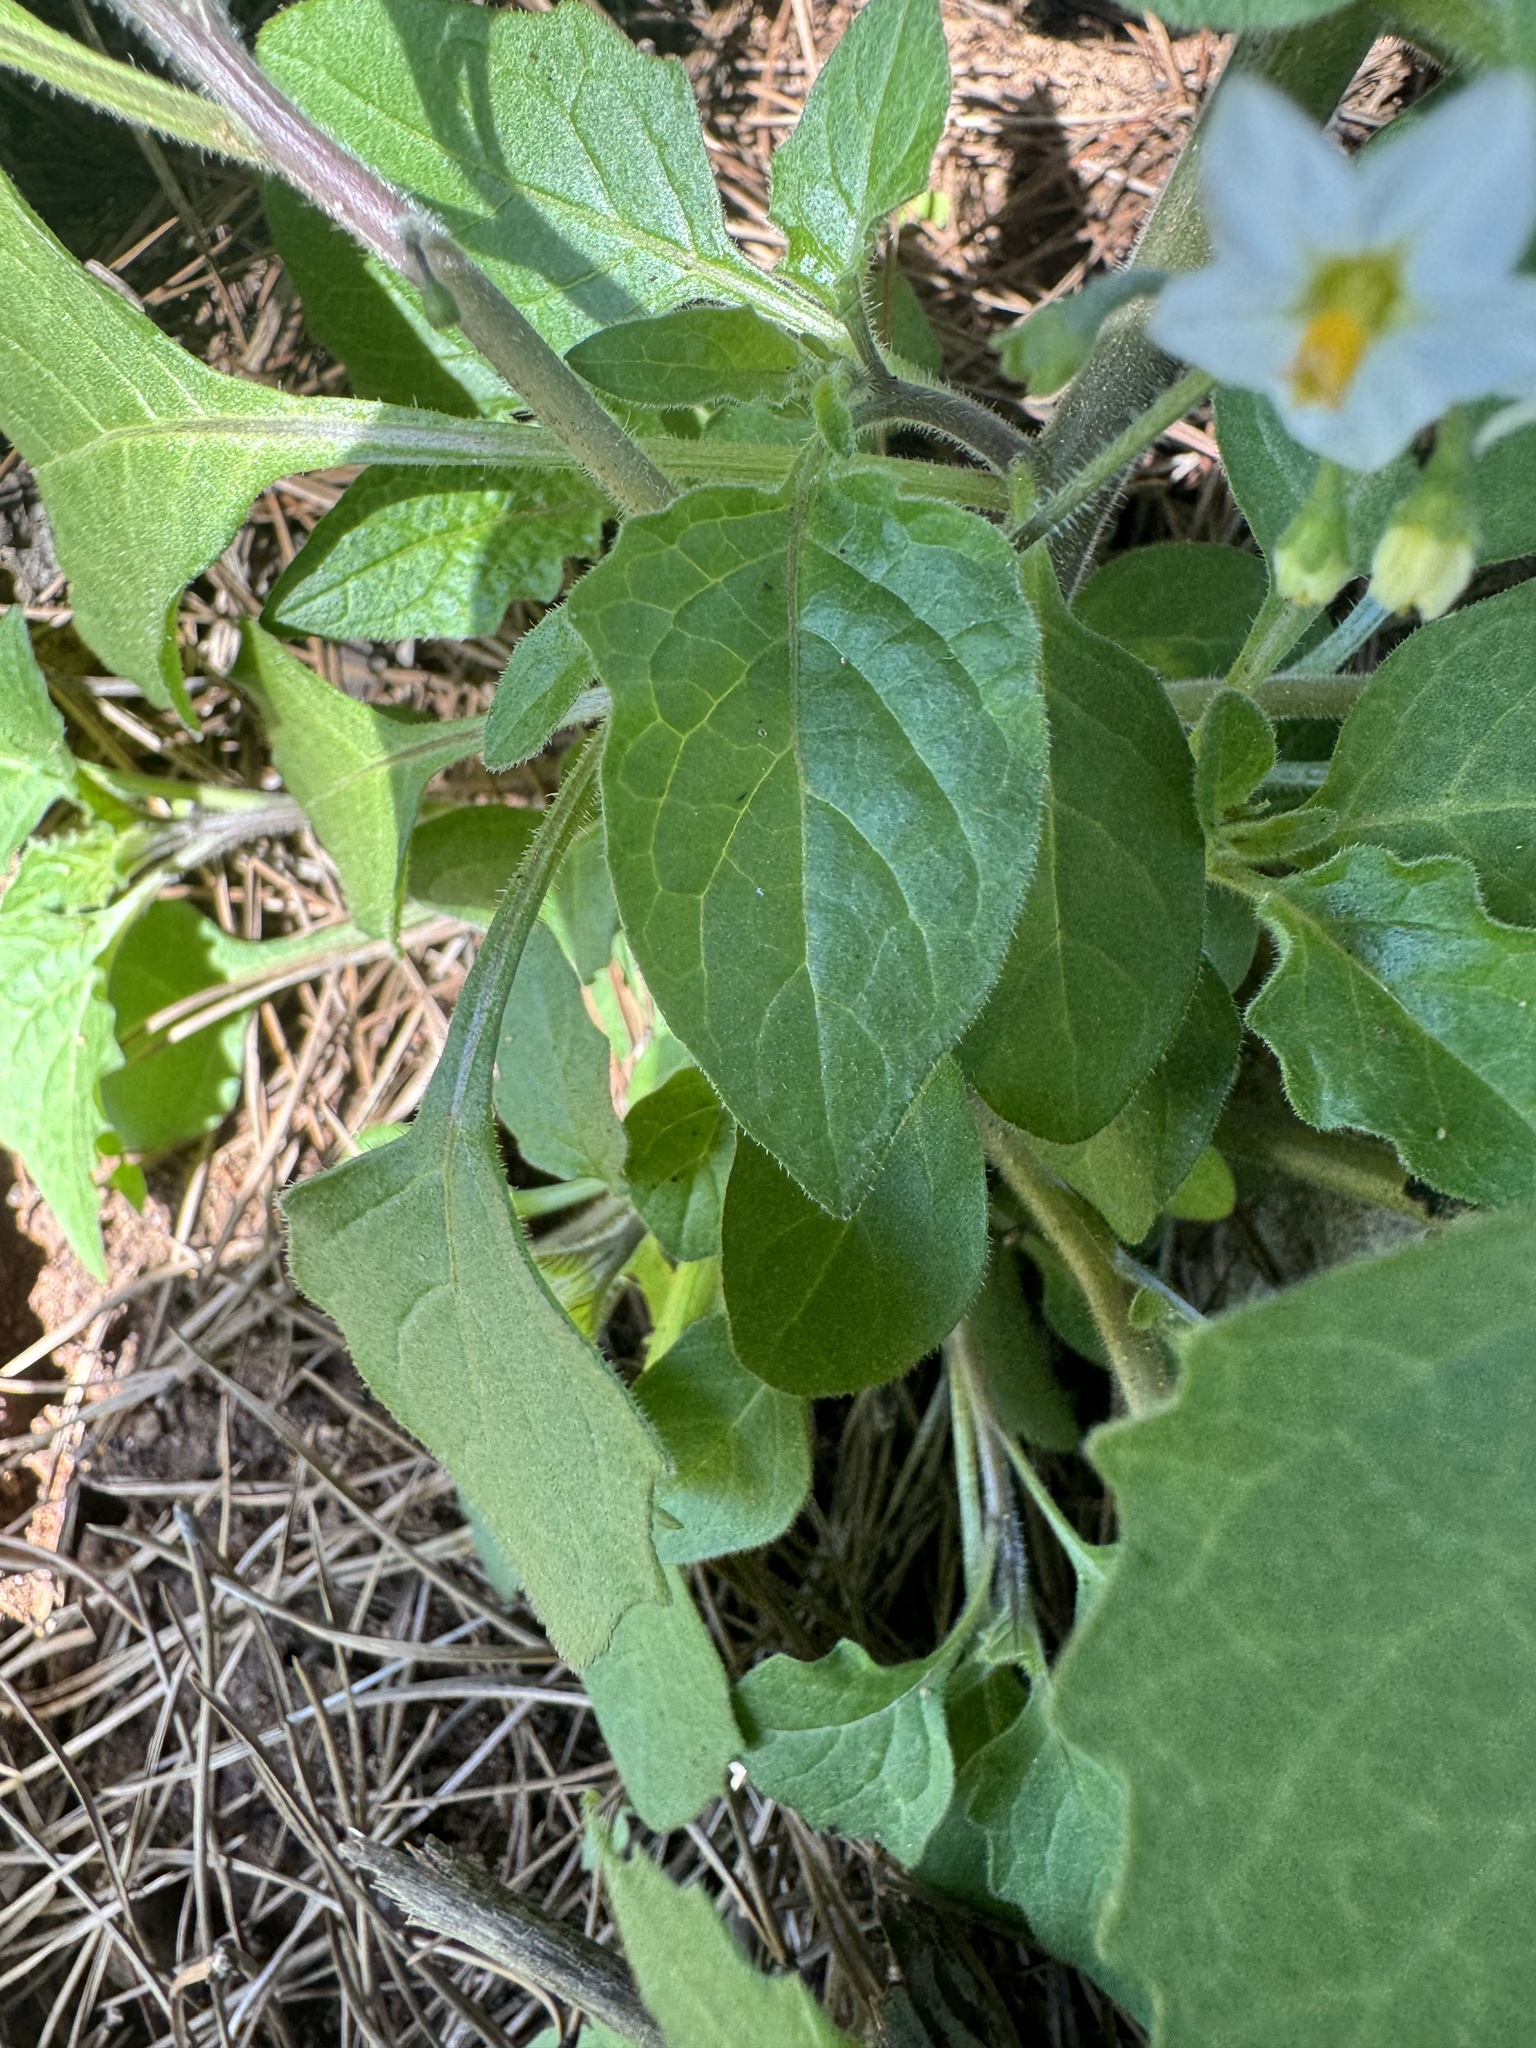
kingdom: Plantae
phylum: Tracheophyta
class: Magnoliopsida
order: Solanales
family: Solanaceae
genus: Solanum
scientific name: Solanum nigrum
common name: Black nightshade
